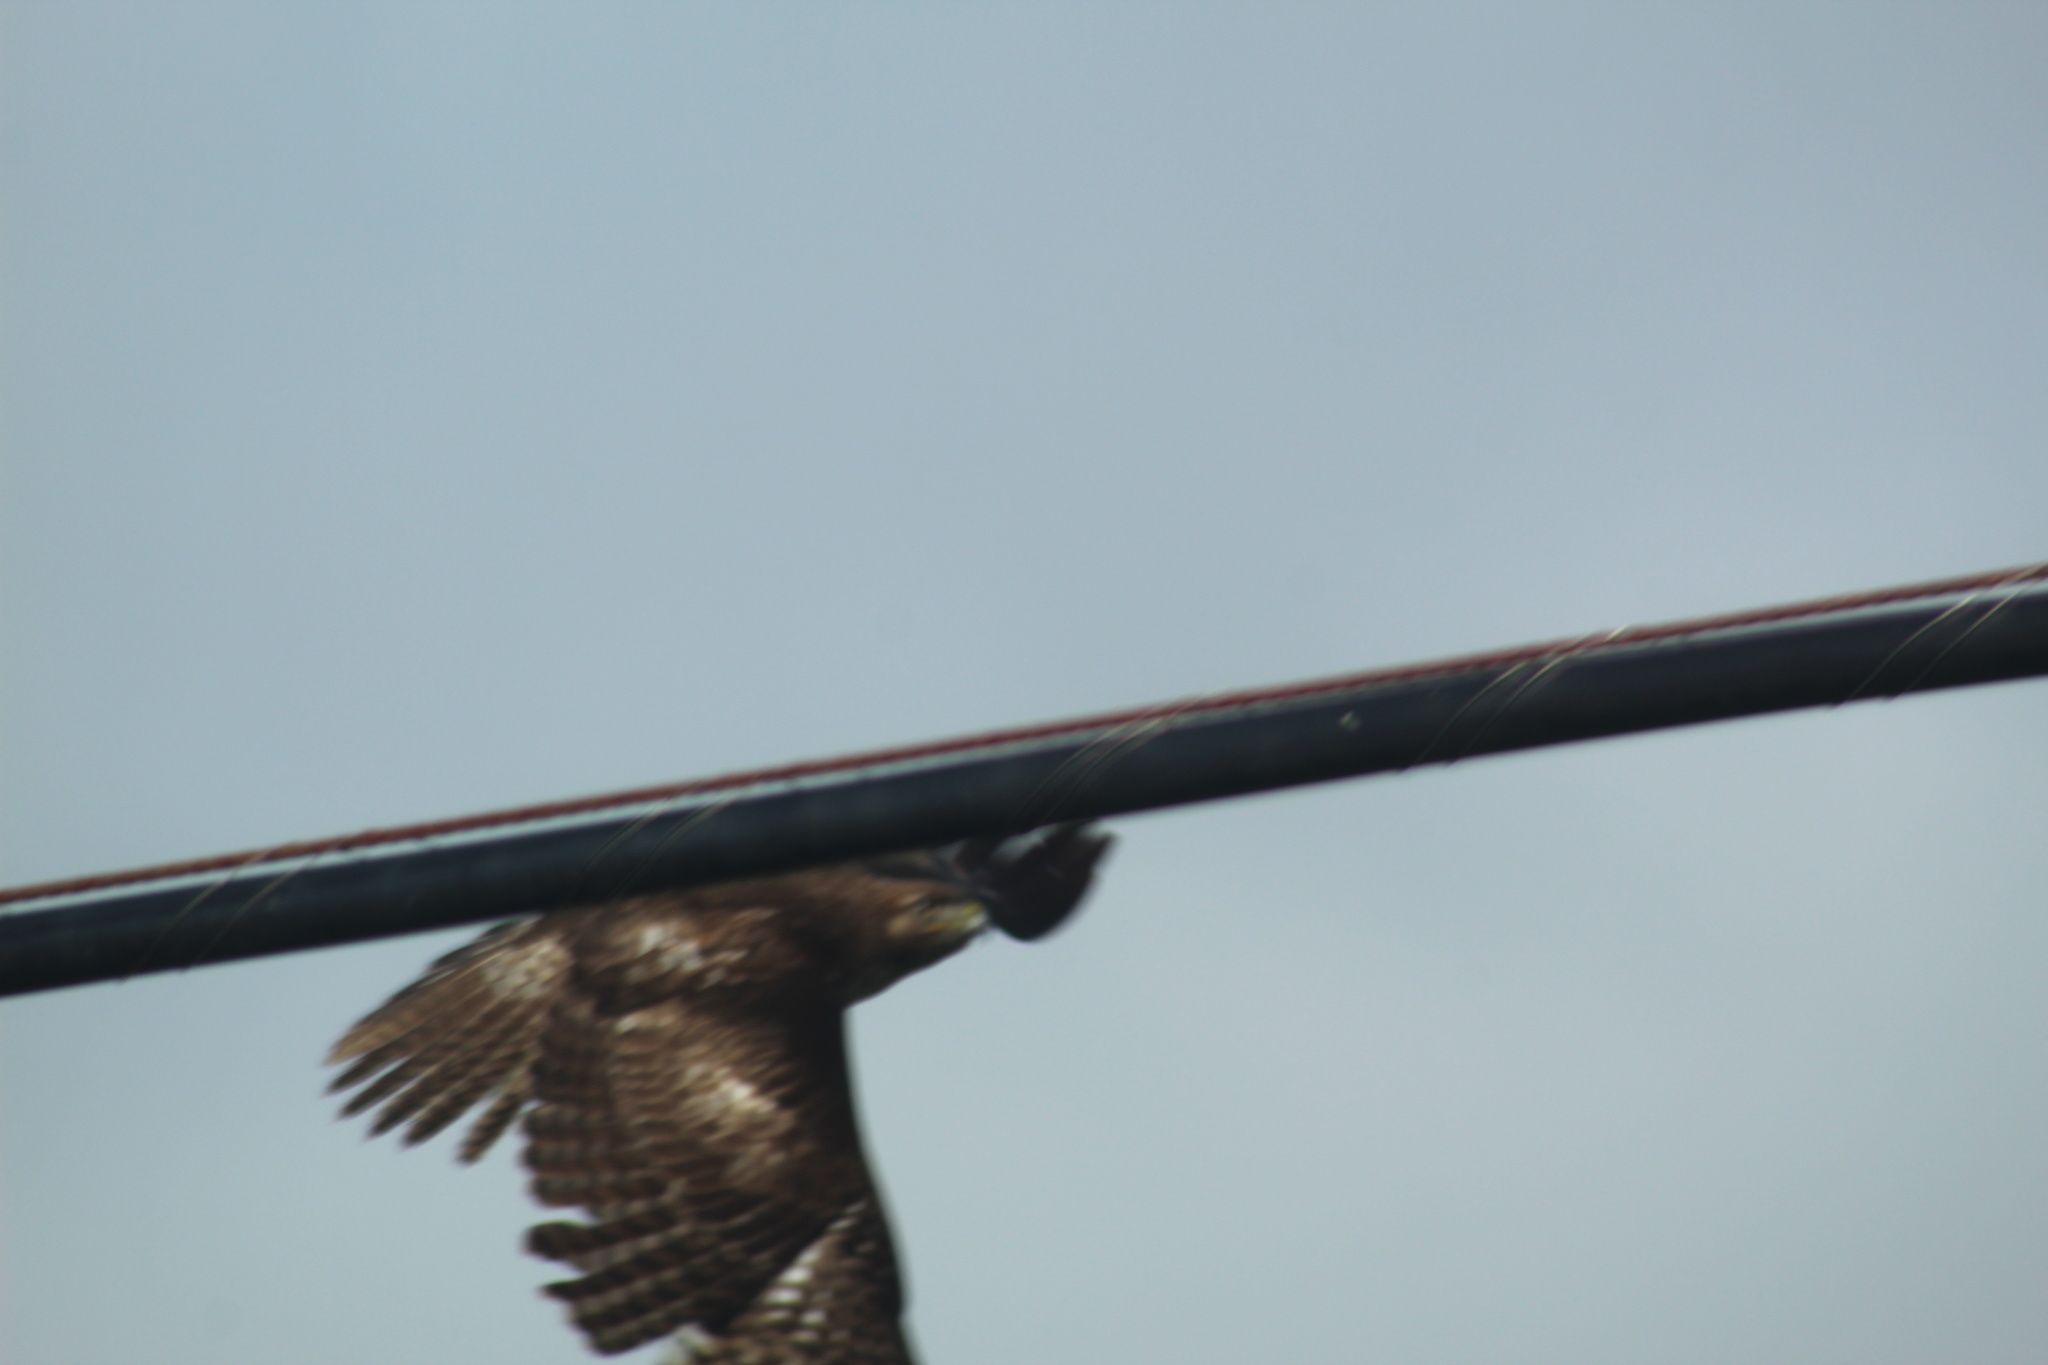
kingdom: Animalia
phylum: Chordata
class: Aves
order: Accipitriformes
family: Accipitridae
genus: Buteo
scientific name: Buteo jamaicensis
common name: Red-tailed hawk
